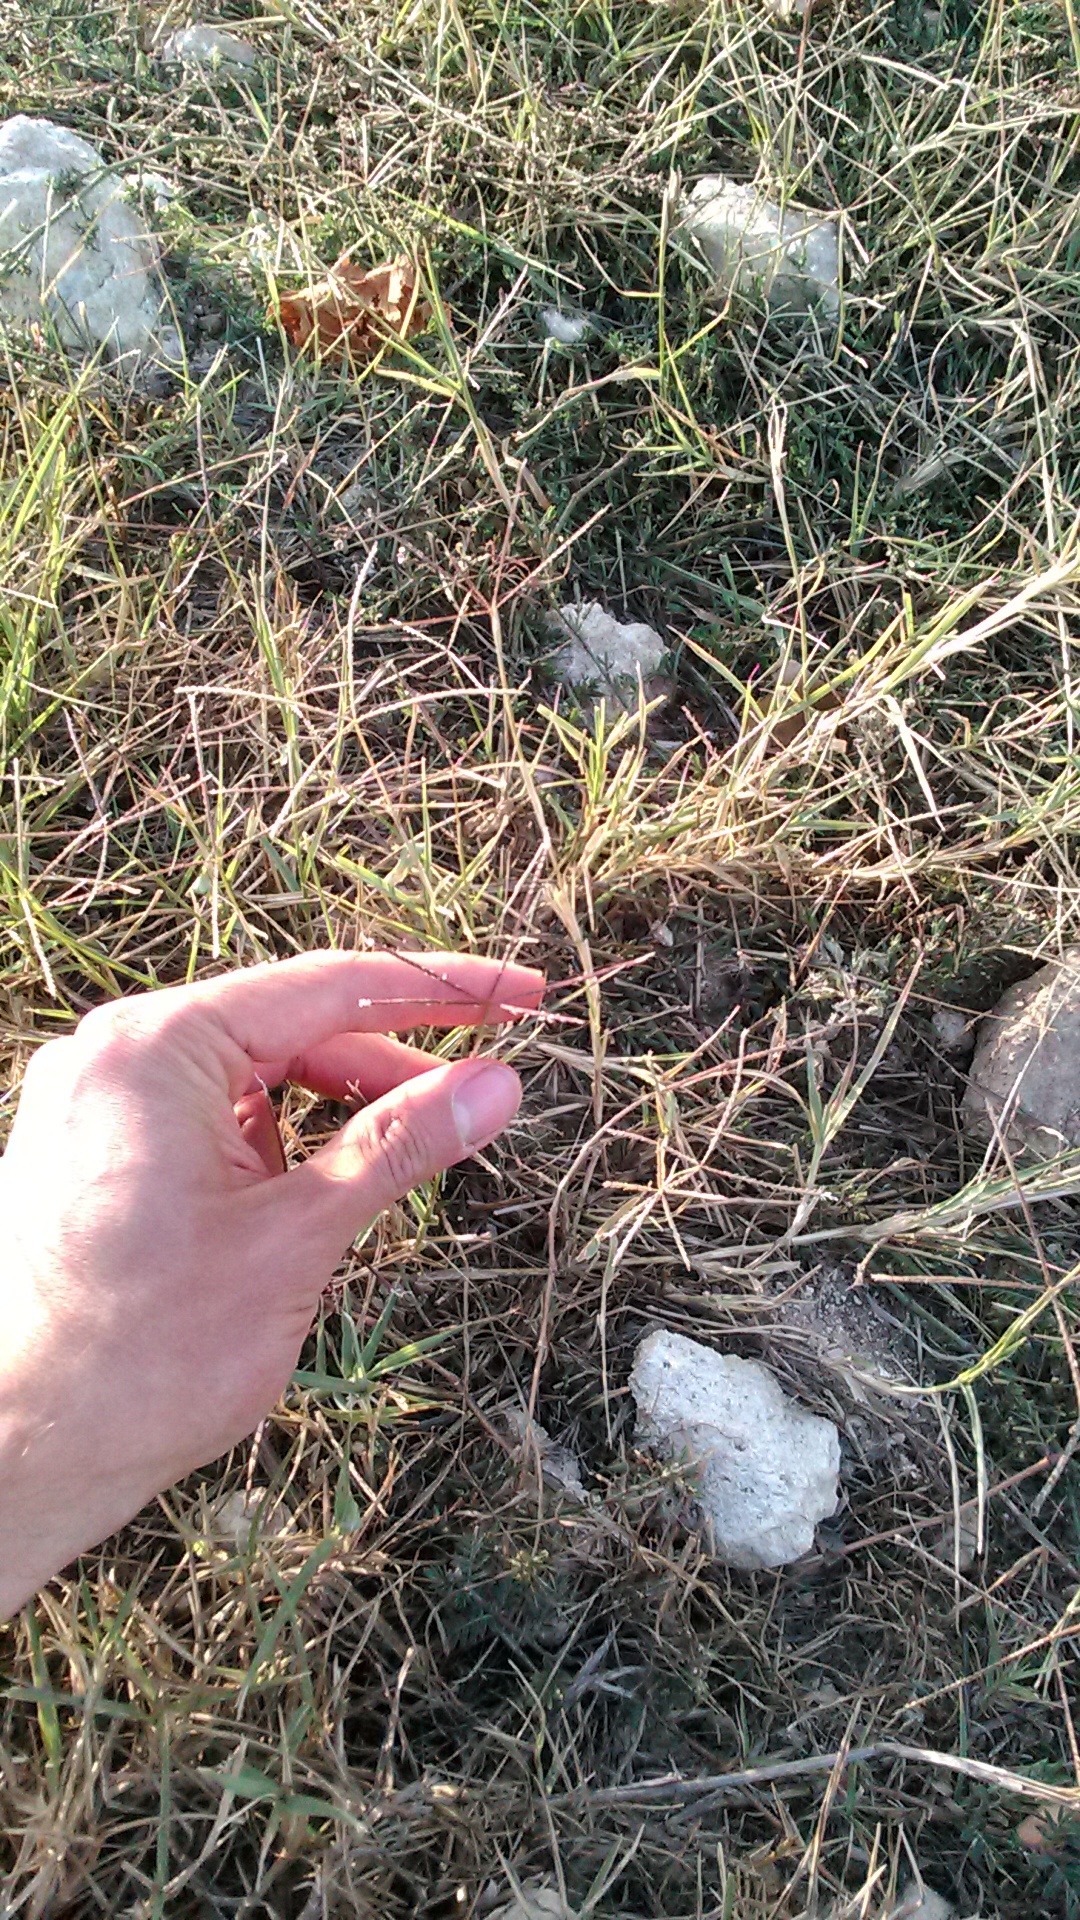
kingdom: Plantae
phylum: Tracheophyta
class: Liliopsida
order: Poales
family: Poaceae
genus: Cynodon
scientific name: Cynodon dactylon
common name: Bermuda grass
